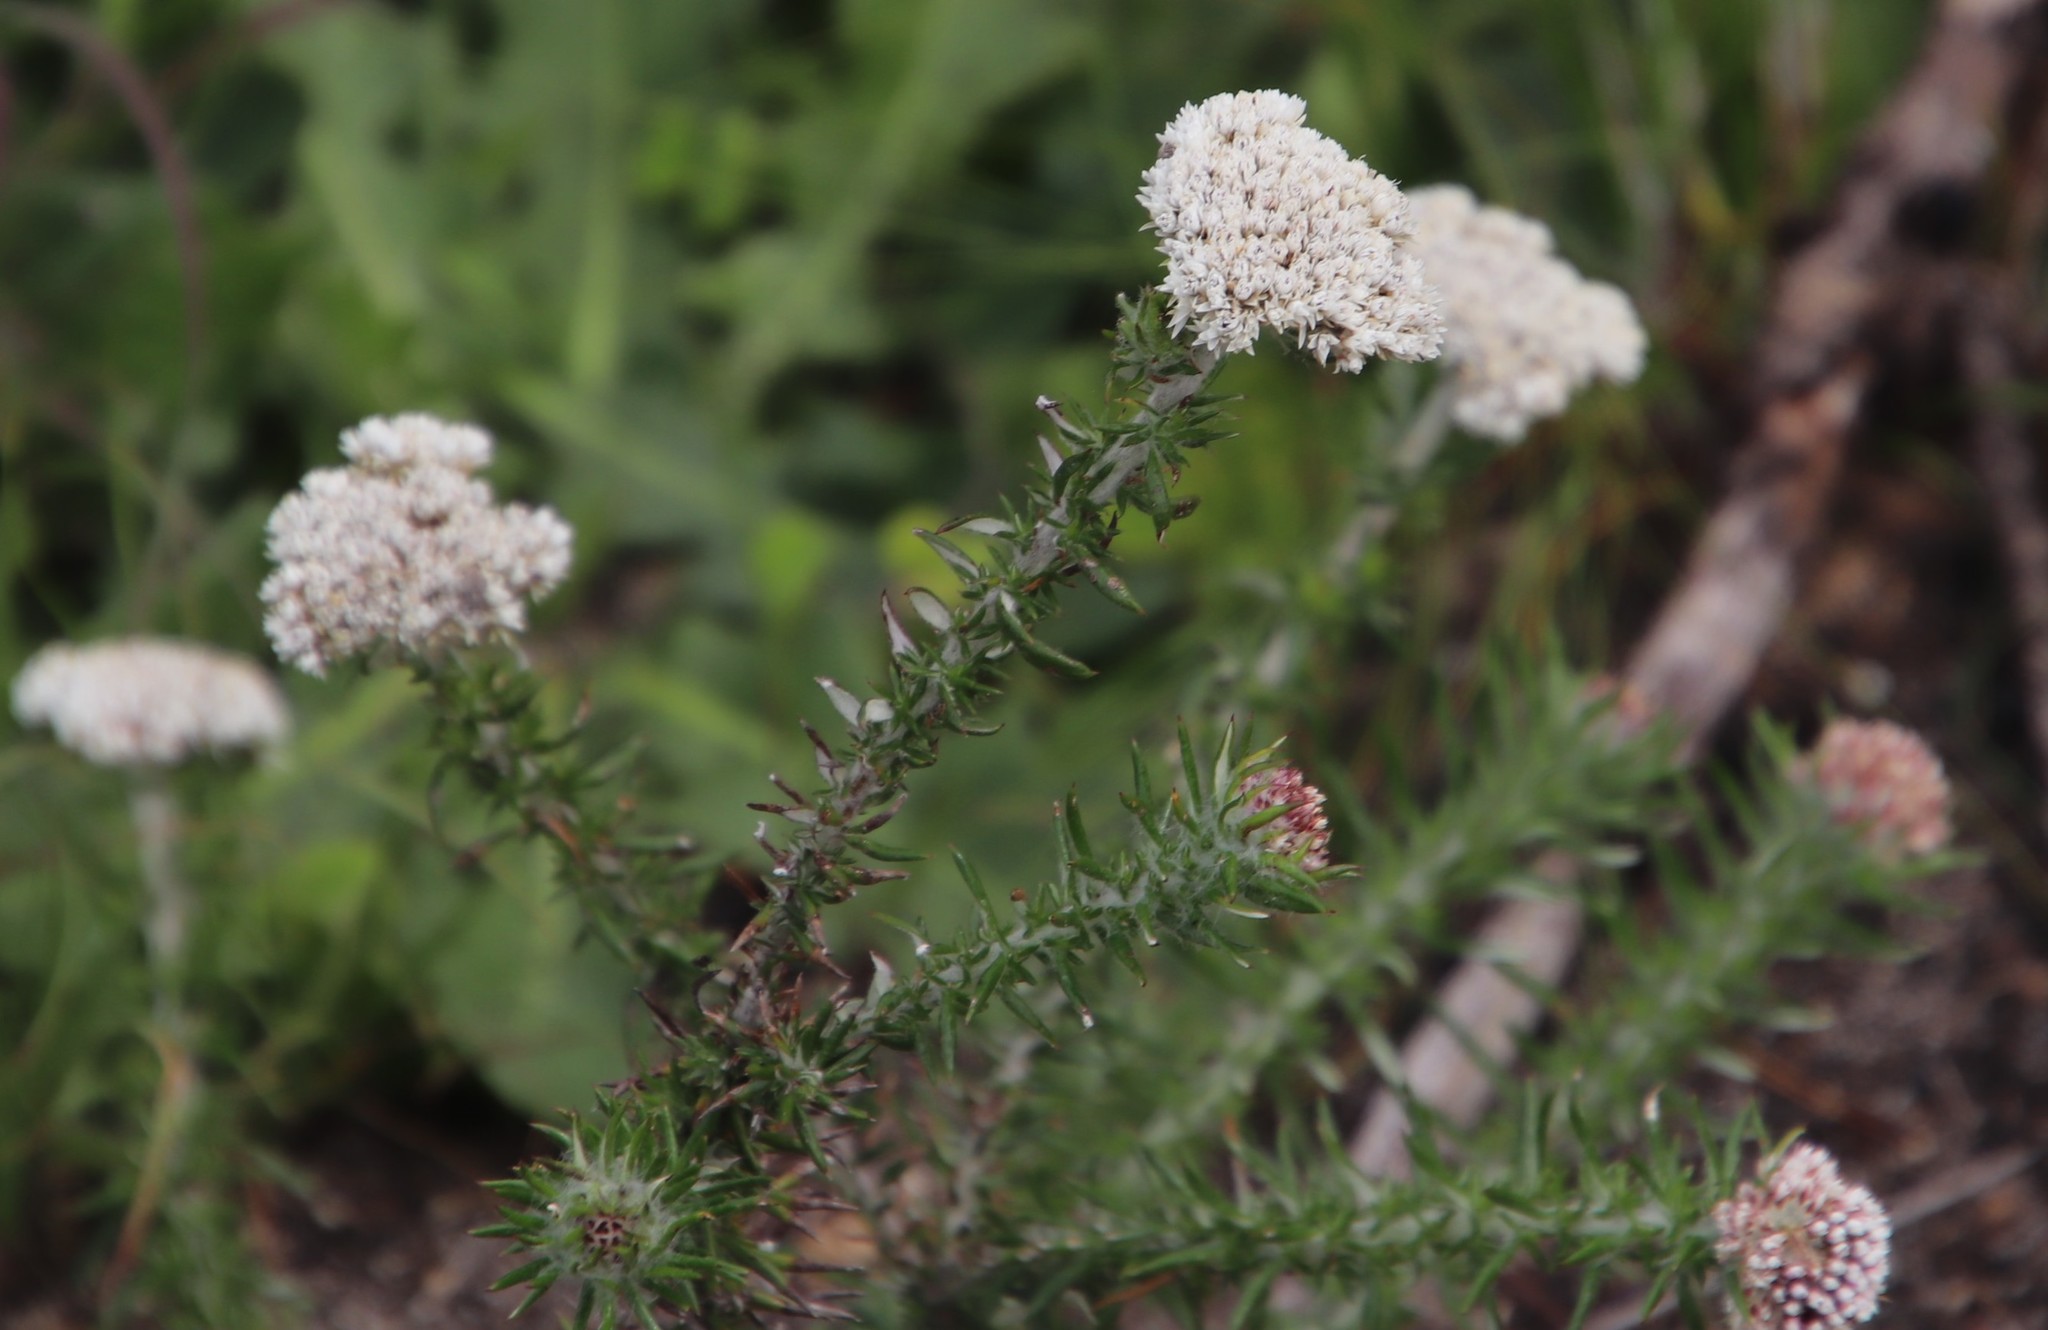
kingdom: Plantae
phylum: Tracheophyta
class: Magnoliopsida
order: Asterales
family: Asteraceae
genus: Metalasia
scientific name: Metalasia pulchella
